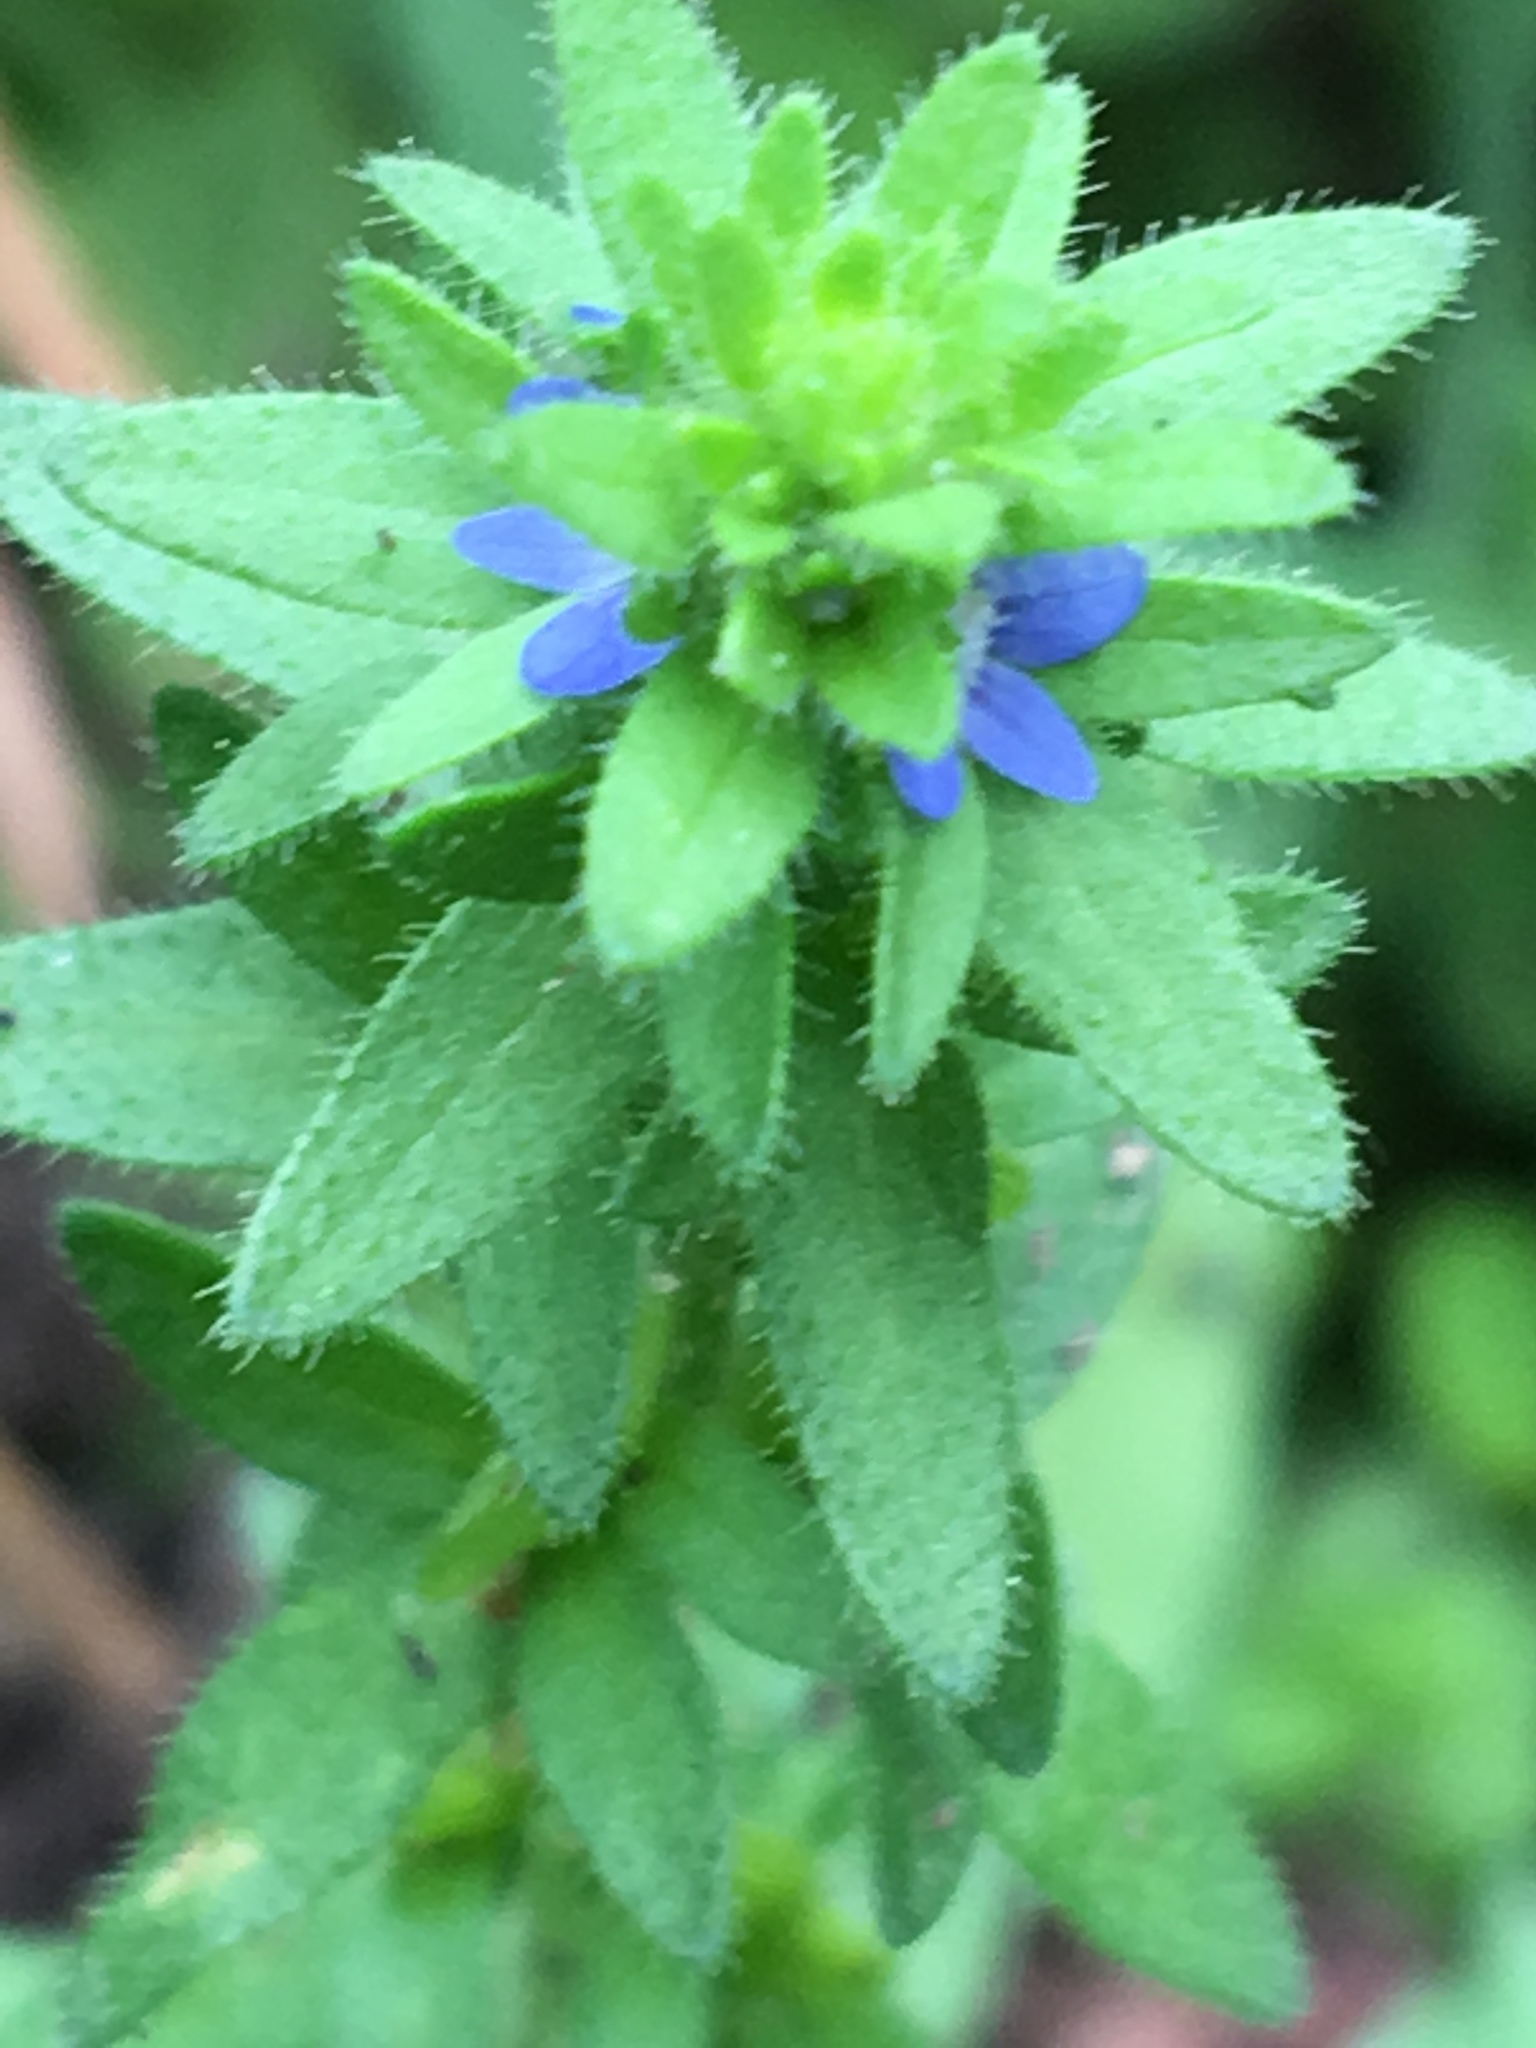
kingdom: Plantae
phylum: Tracheophyta
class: Magnoliopsida
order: Lamiales
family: Plantaginaceae
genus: Veronica
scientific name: Veronica arvensis
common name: Corn speedwell
